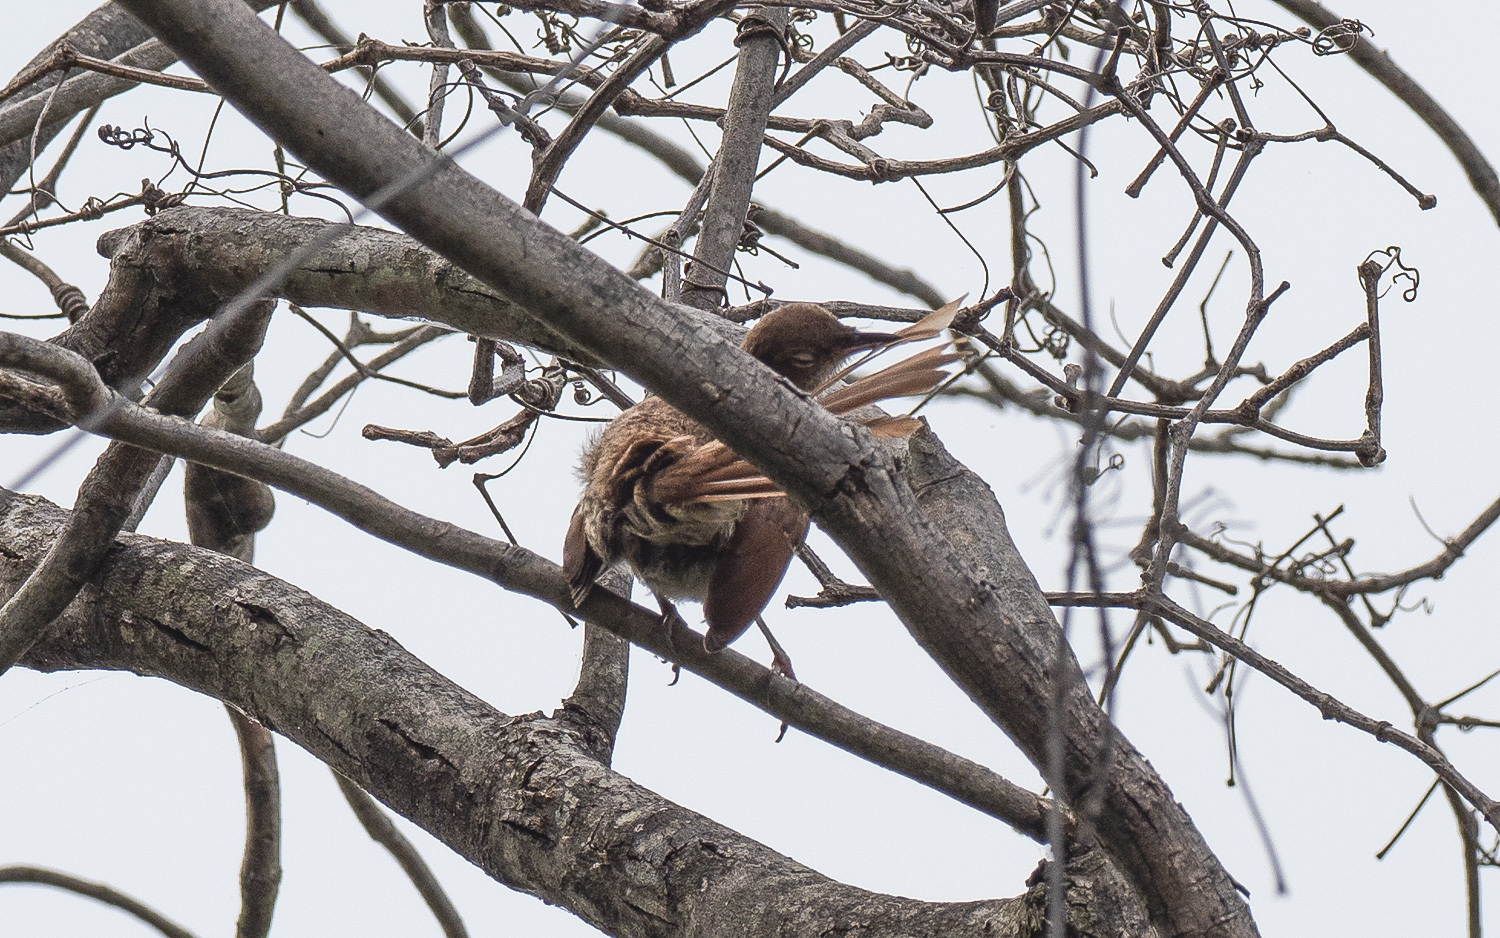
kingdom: Animalia
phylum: Chordata
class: Aves
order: Passeriformes
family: Mimidae
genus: Toxostoma
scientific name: Toxostoma rufum
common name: Brown thrasher
